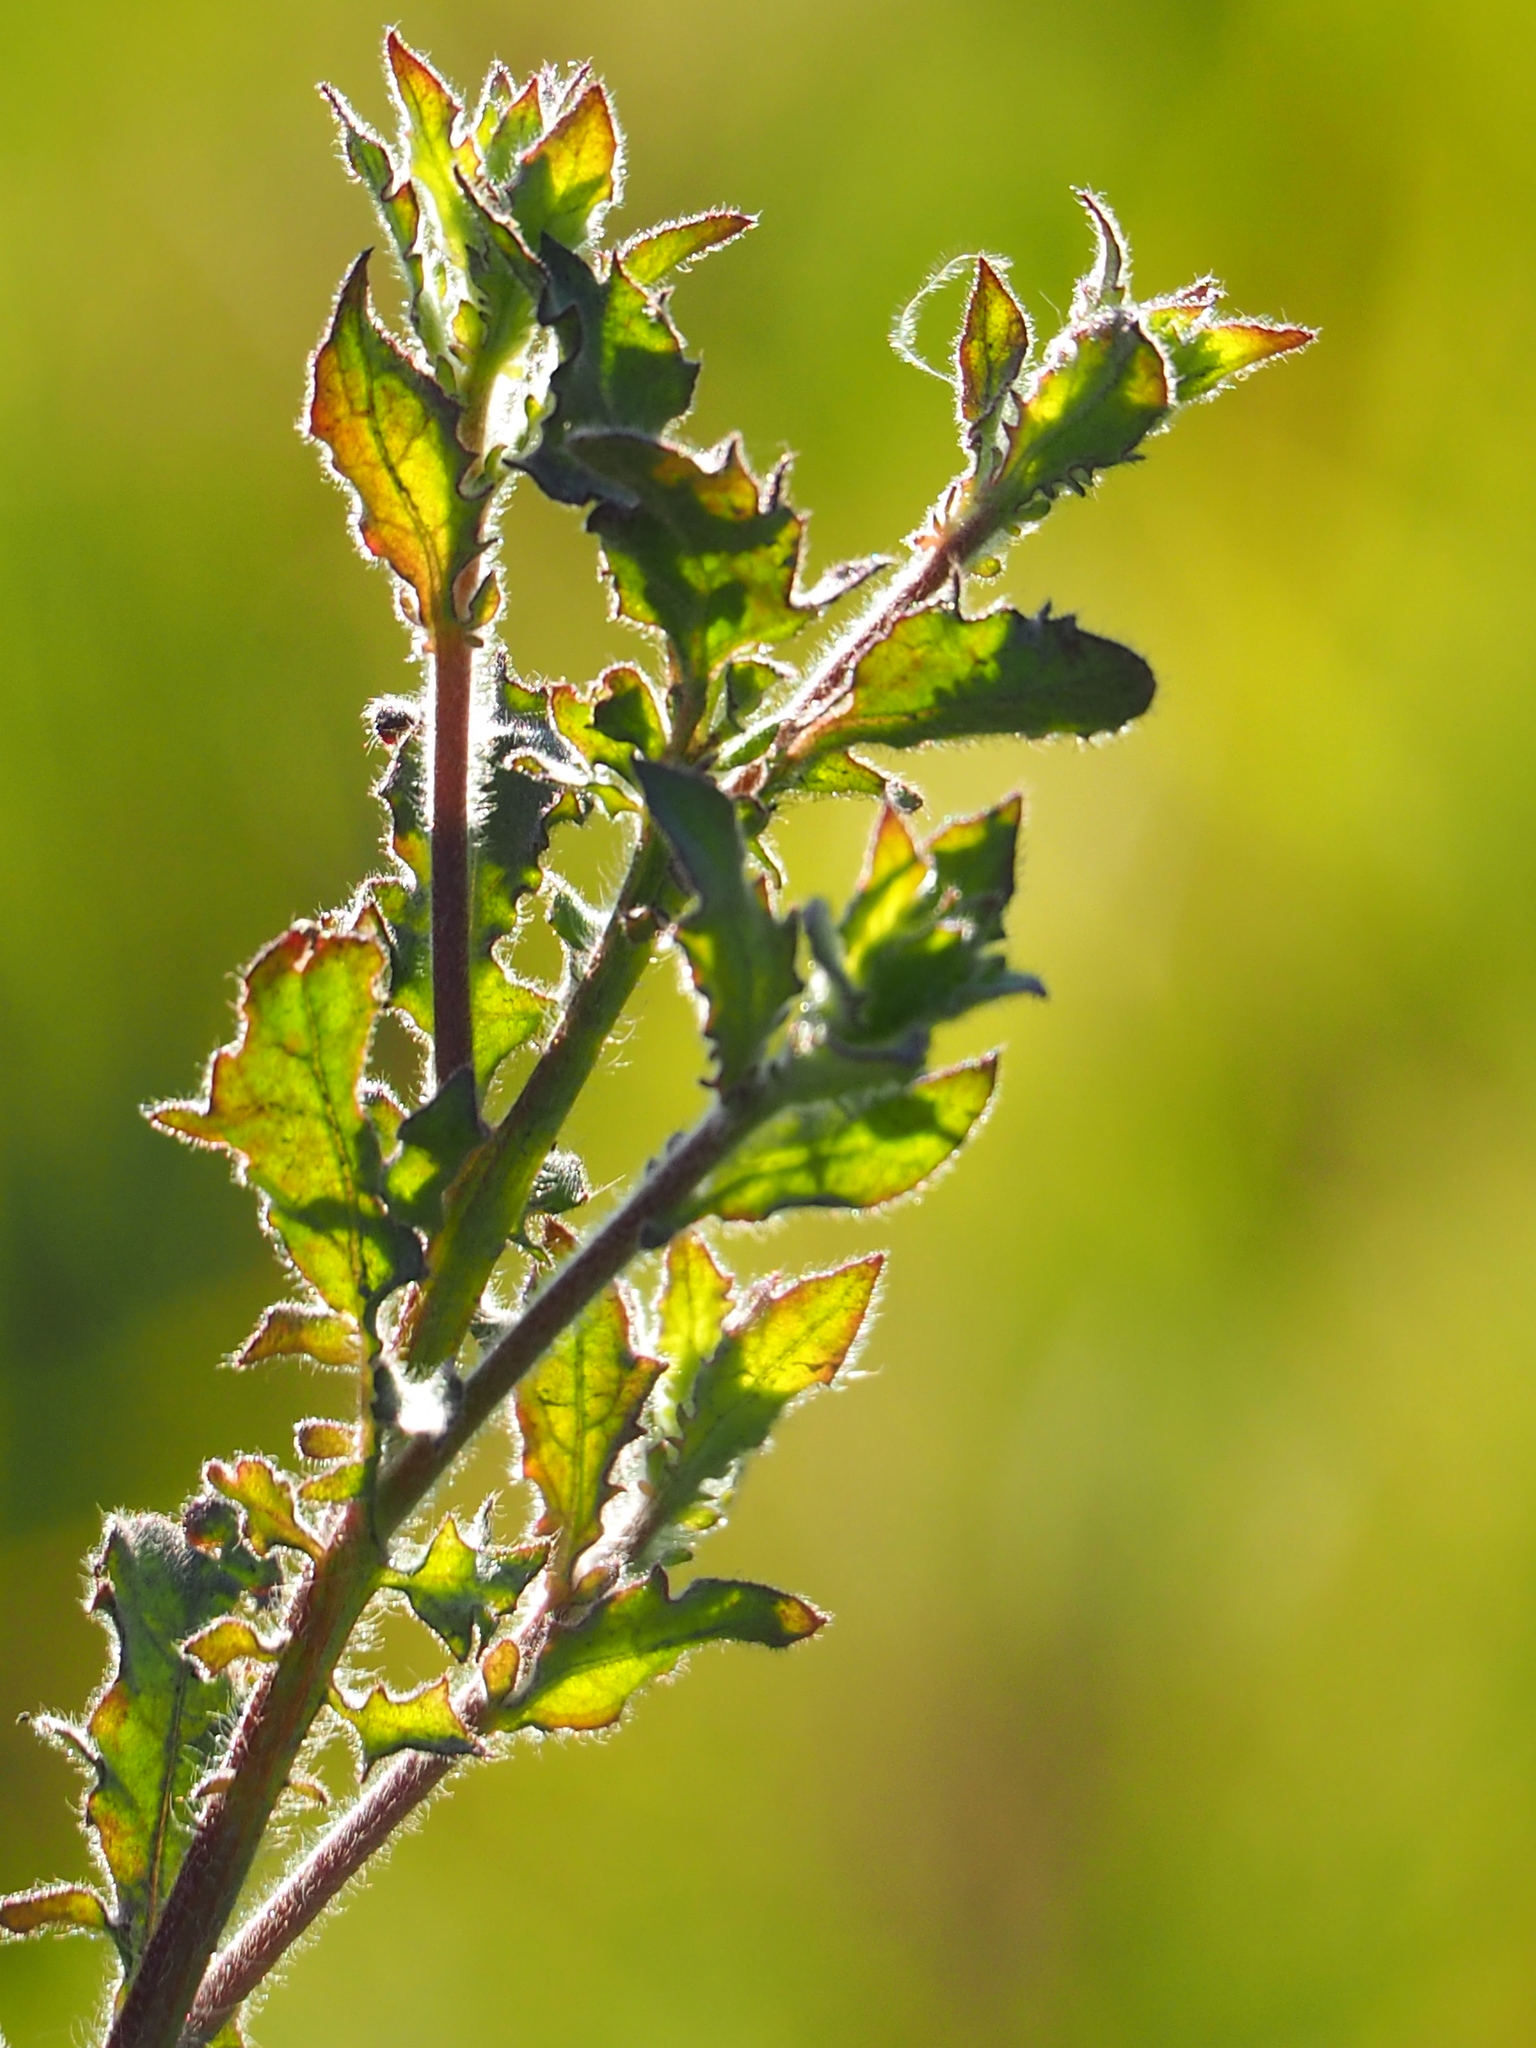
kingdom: Plantae
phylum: Tracheophyta
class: Magnoliopsida
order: Asterales
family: Asteraceae
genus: Pseudoconyza
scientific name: Pseudoconyza viscosa
